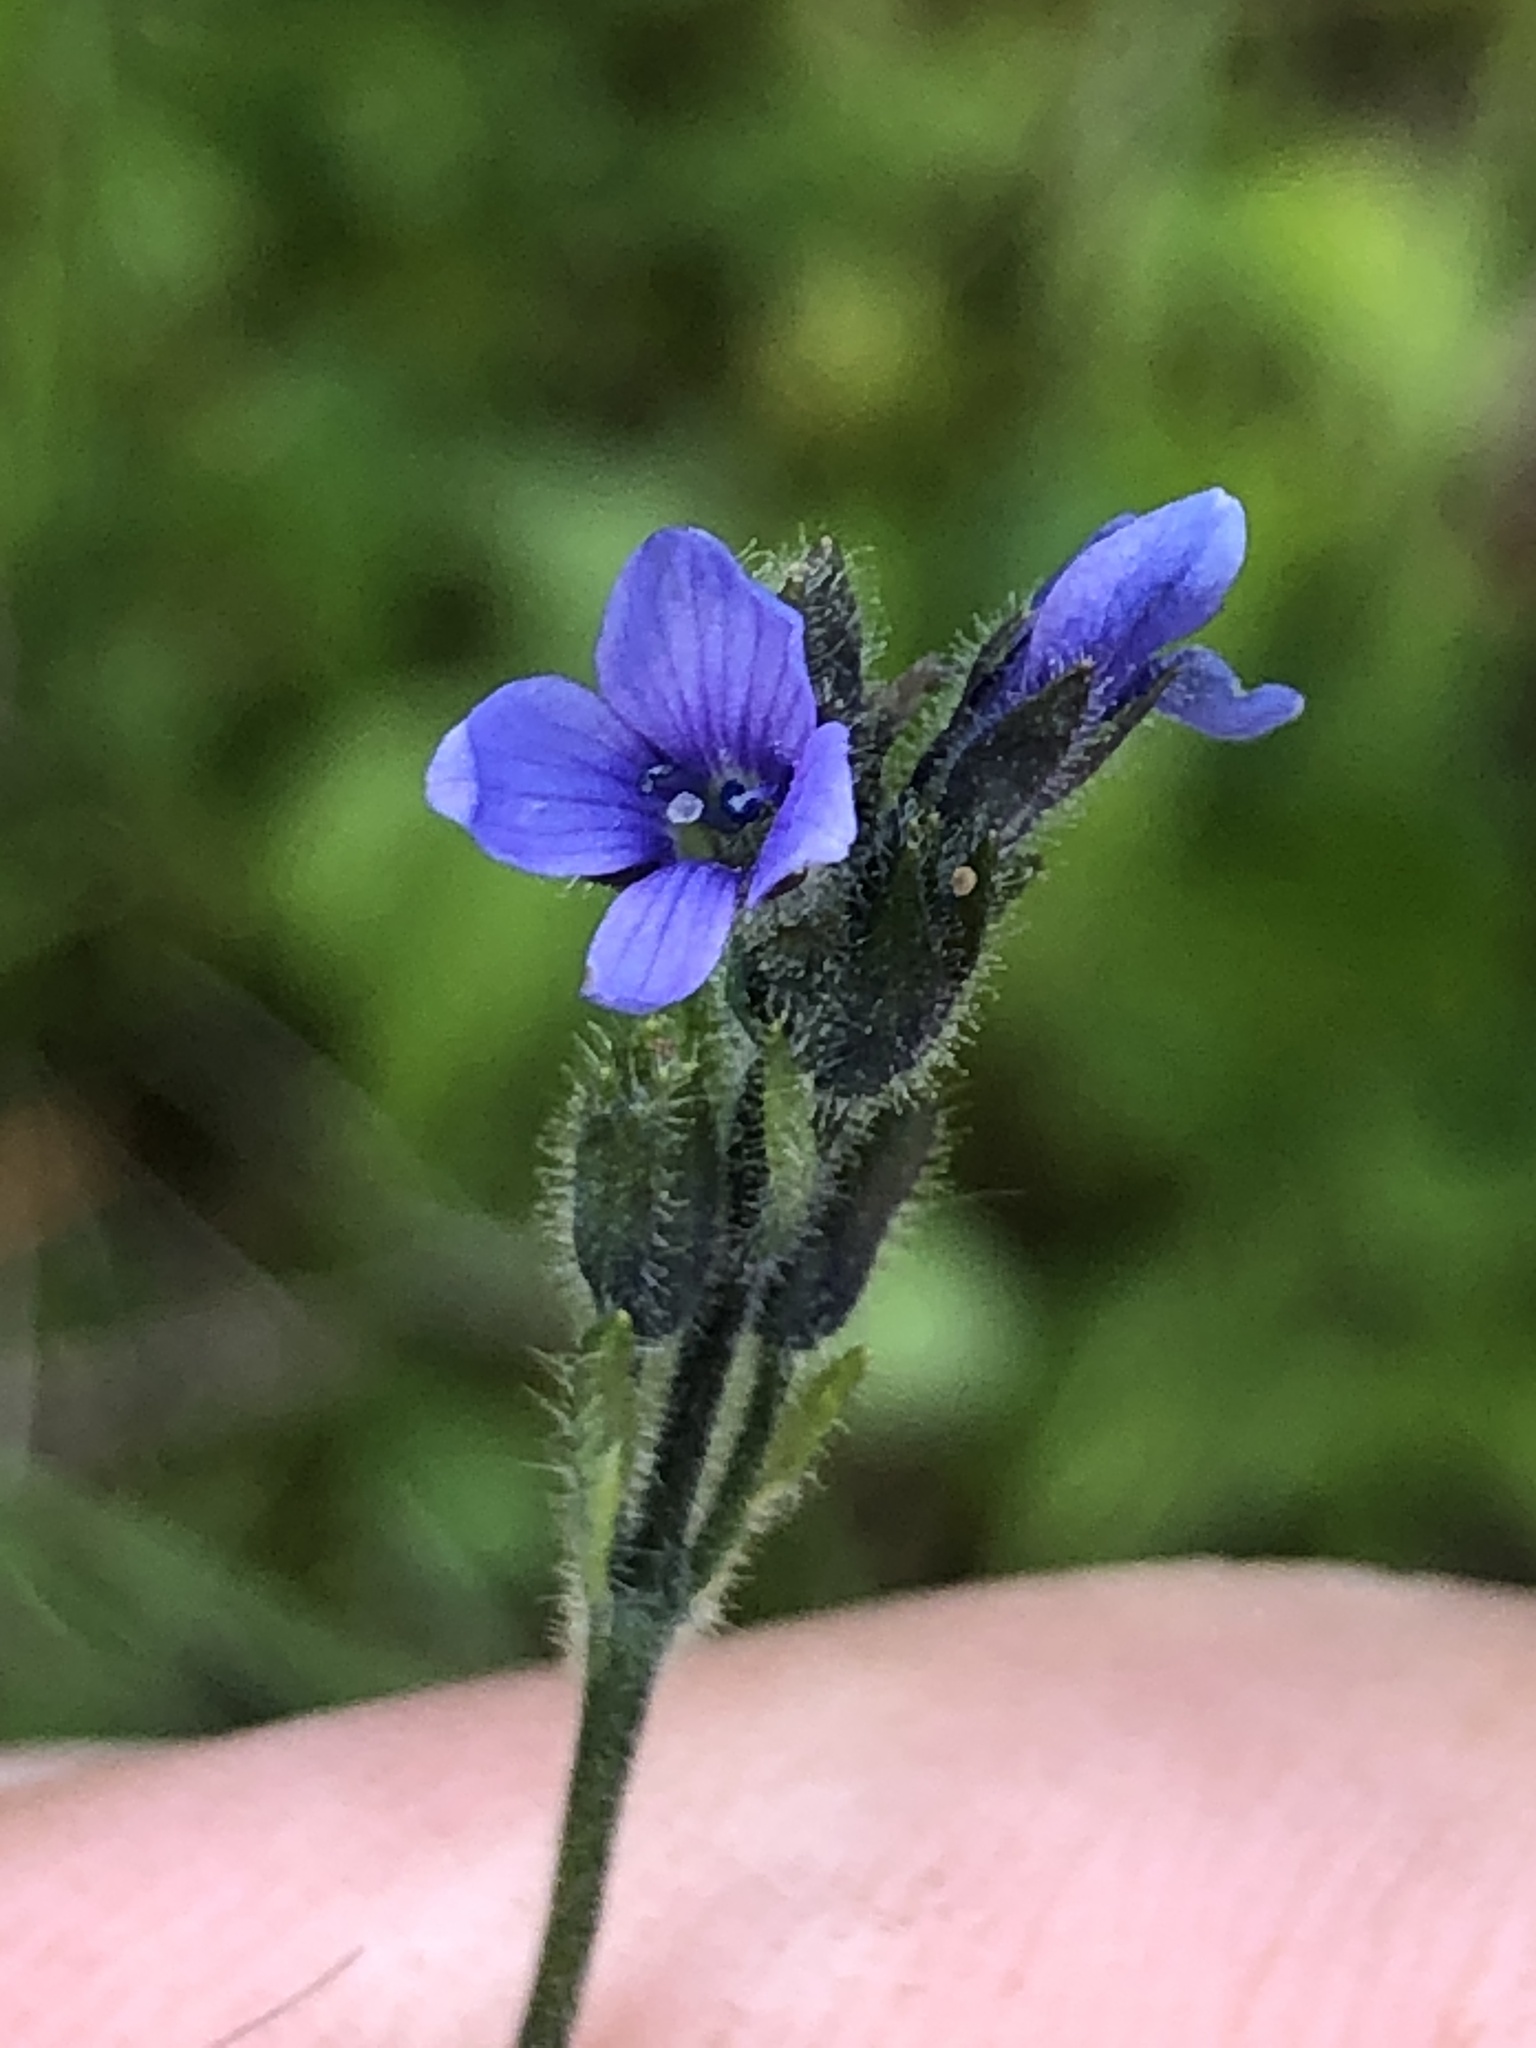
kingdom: Plantae
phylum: Tracheophyta
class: Magnoliopsida
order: Lamiales
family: Plantaginaceae
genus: Veronica
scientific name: Veronica wormskjoldii
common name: American alpine speedwell
